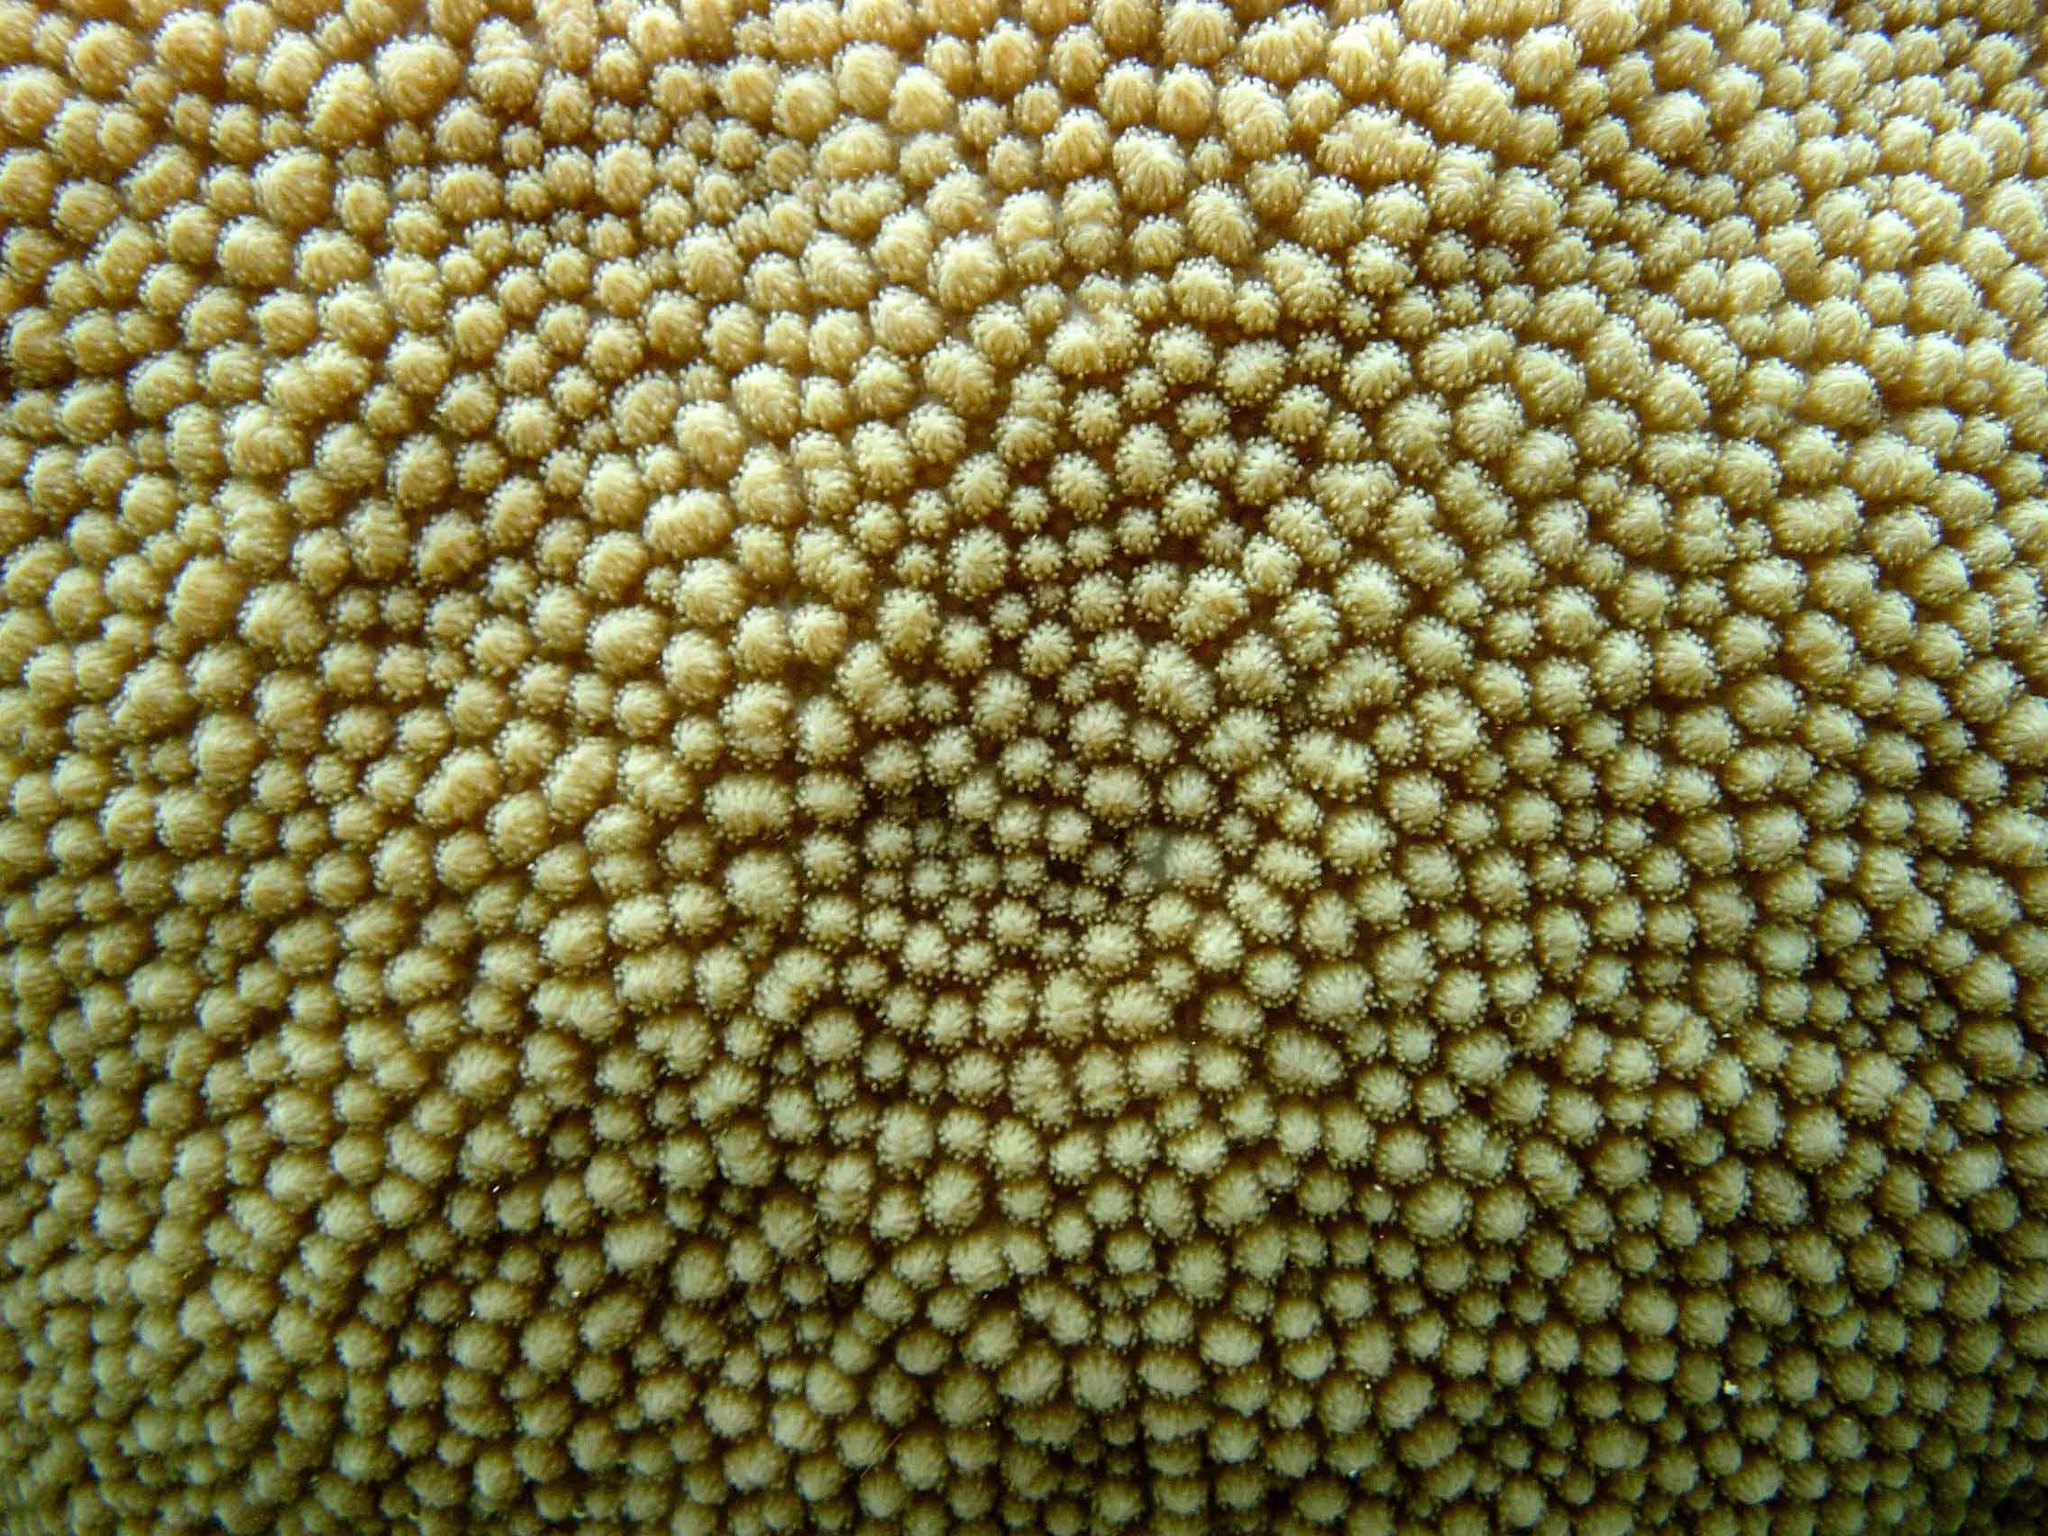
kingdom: Animalia
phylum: Cnidaria
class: Anthozoa
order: Scleractinia
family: Merulinidae
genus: Hydnophora
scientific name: Hydnophora microconos
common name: Spine coral
